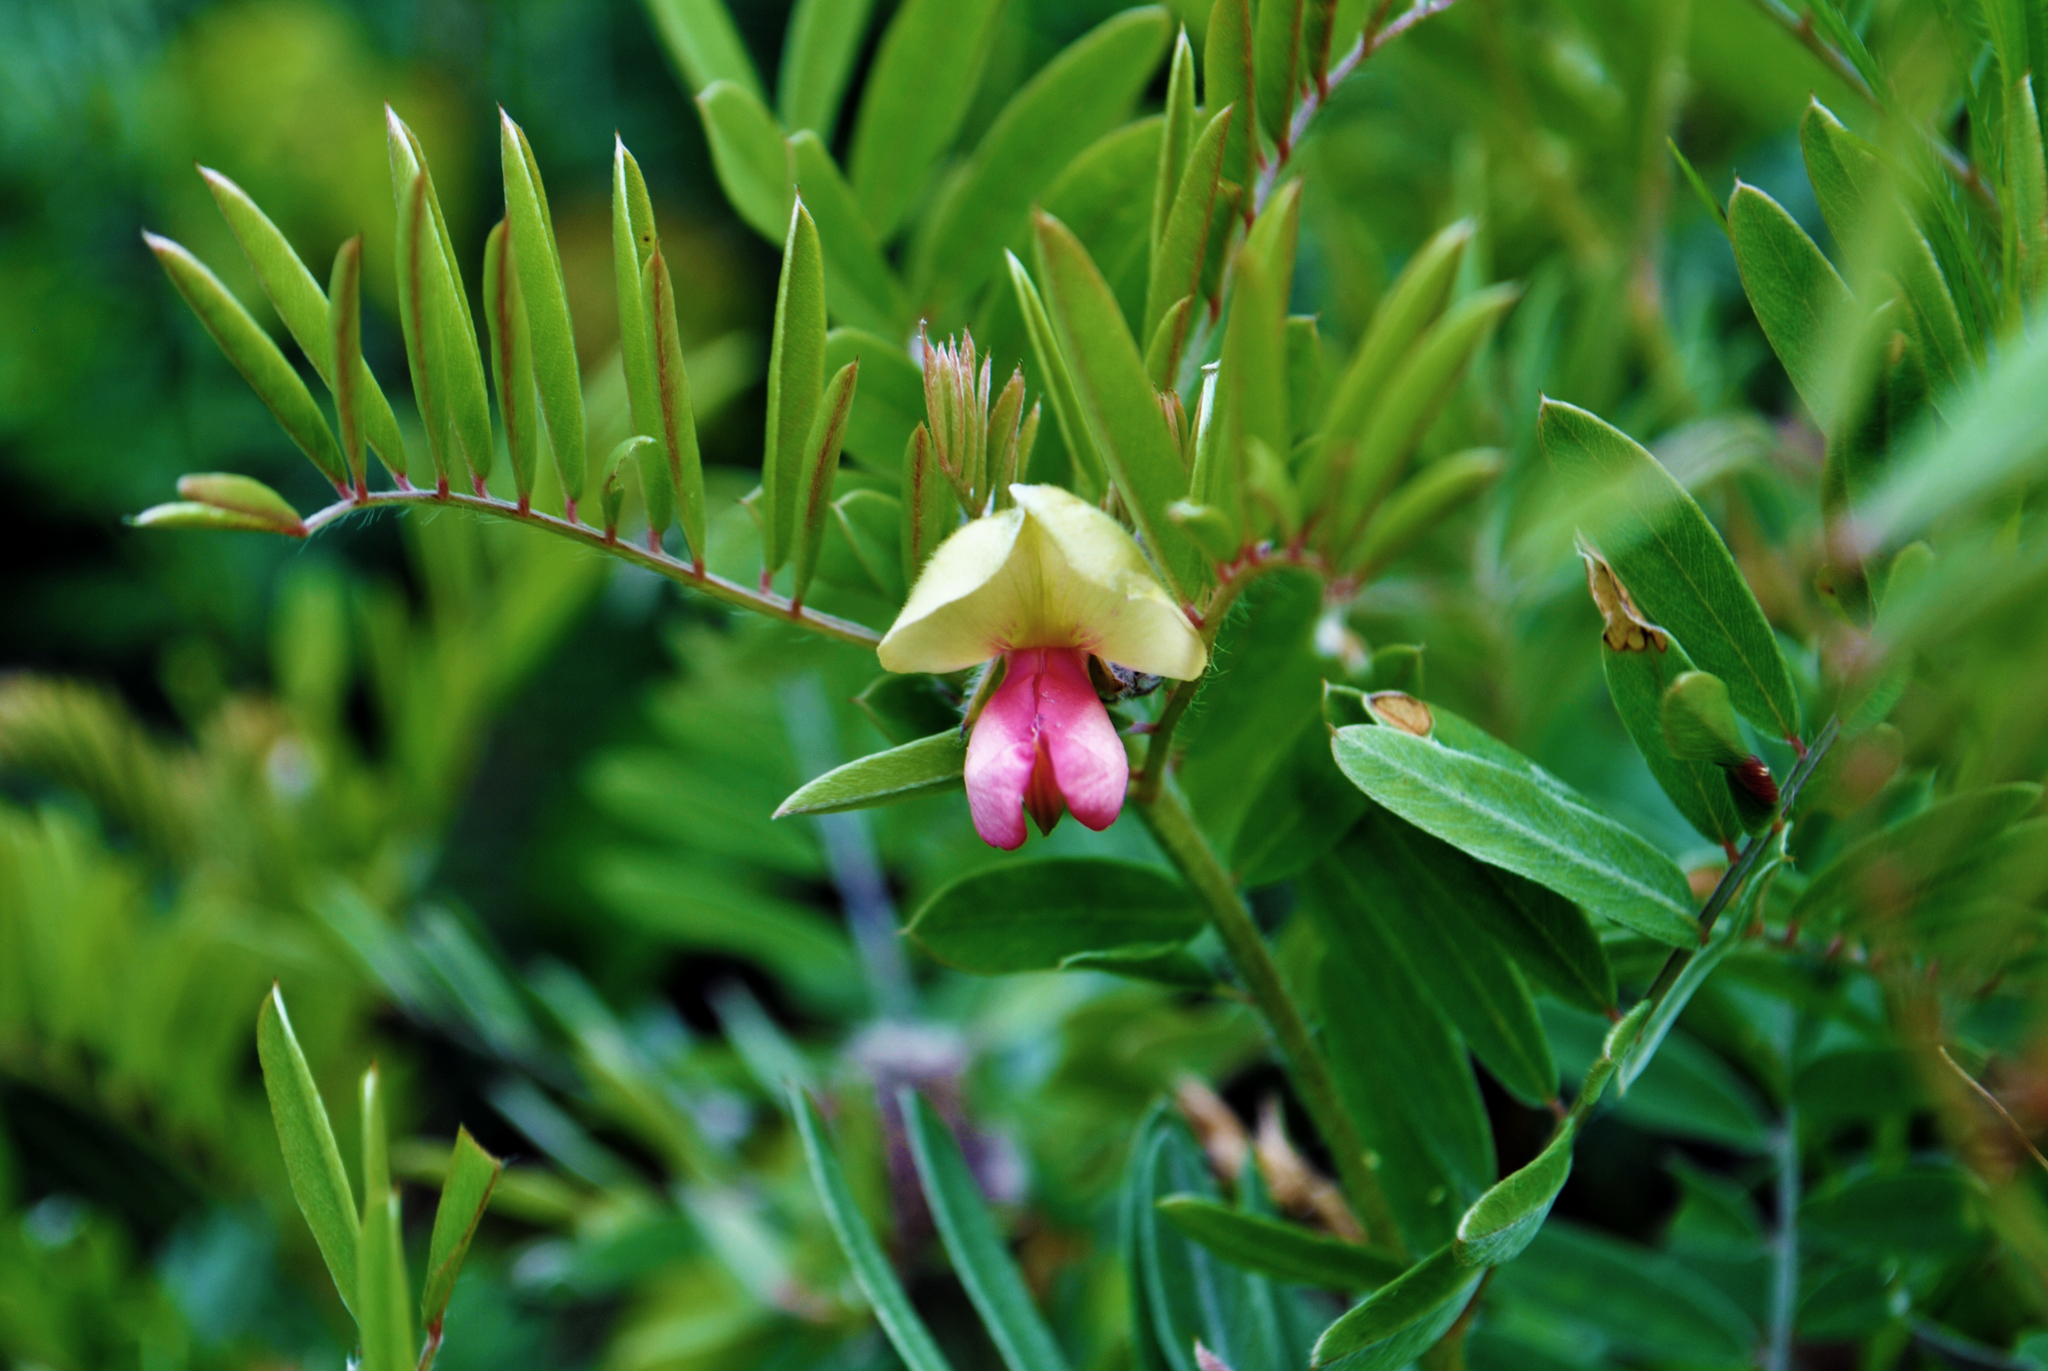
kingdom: Plantae
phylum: Tracheophyta
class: Magnoliopsida
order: Fabales
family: Fabaceae
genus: Tephrosia
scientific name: Tephrosia virginiana
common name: Rabbit-pea
